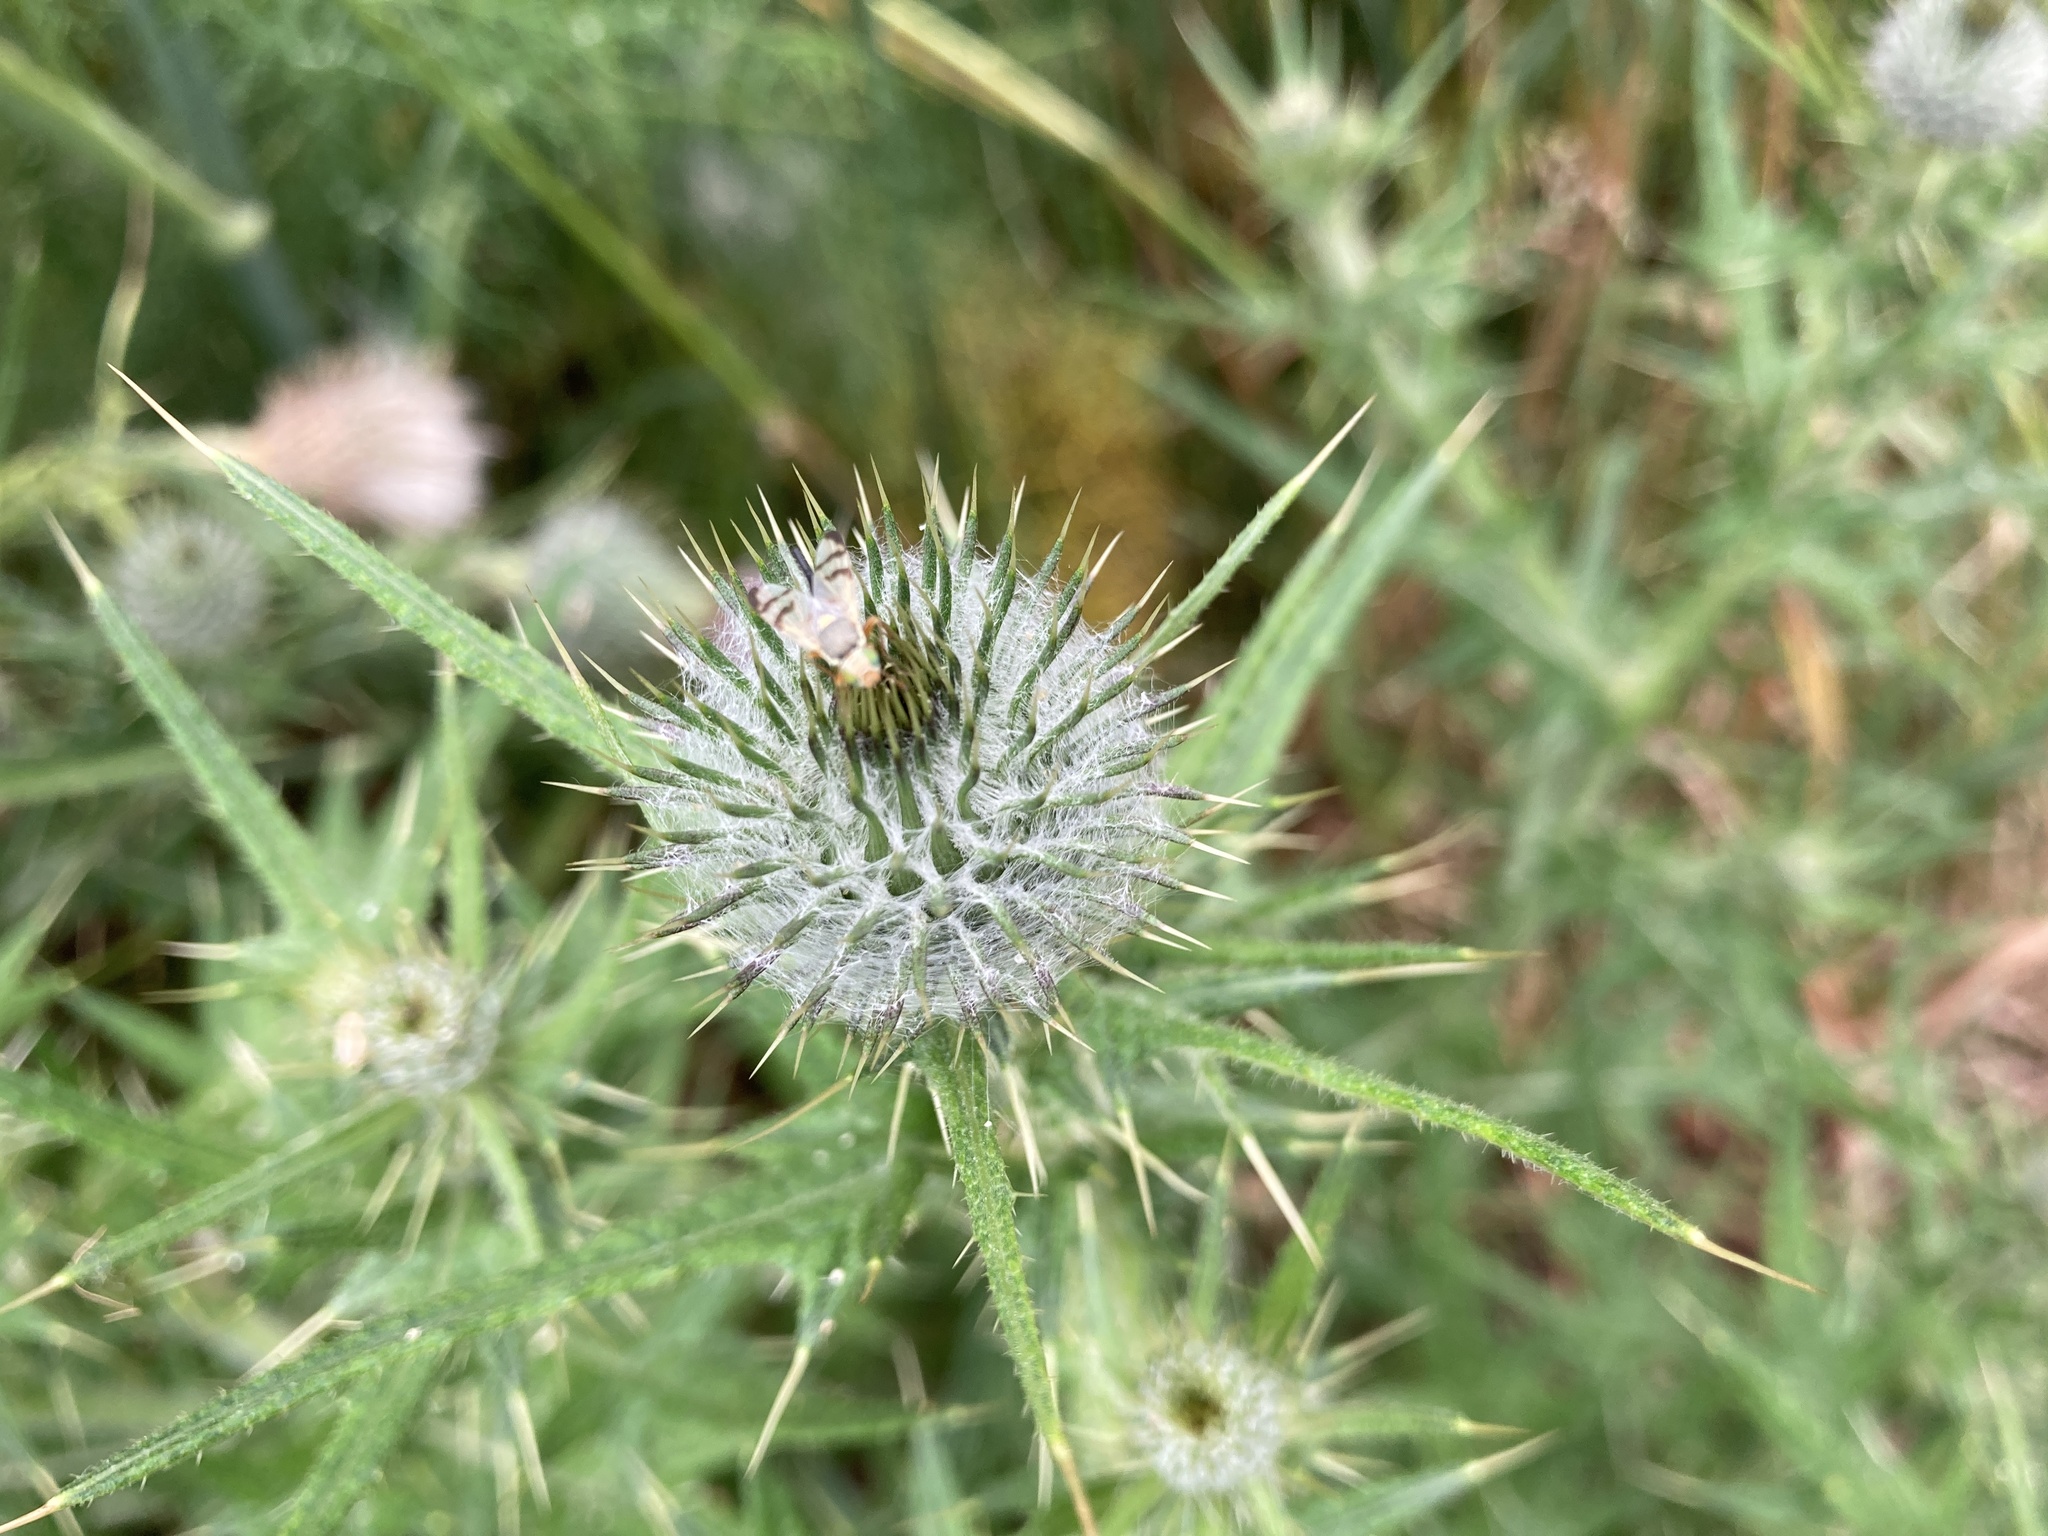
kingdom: Animalia
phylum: Arthropoda
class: Insecta
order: Lepidoptera
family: Nymphalidae
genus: Vanessa
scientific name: Vanessa itea
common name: Yellow admiral
